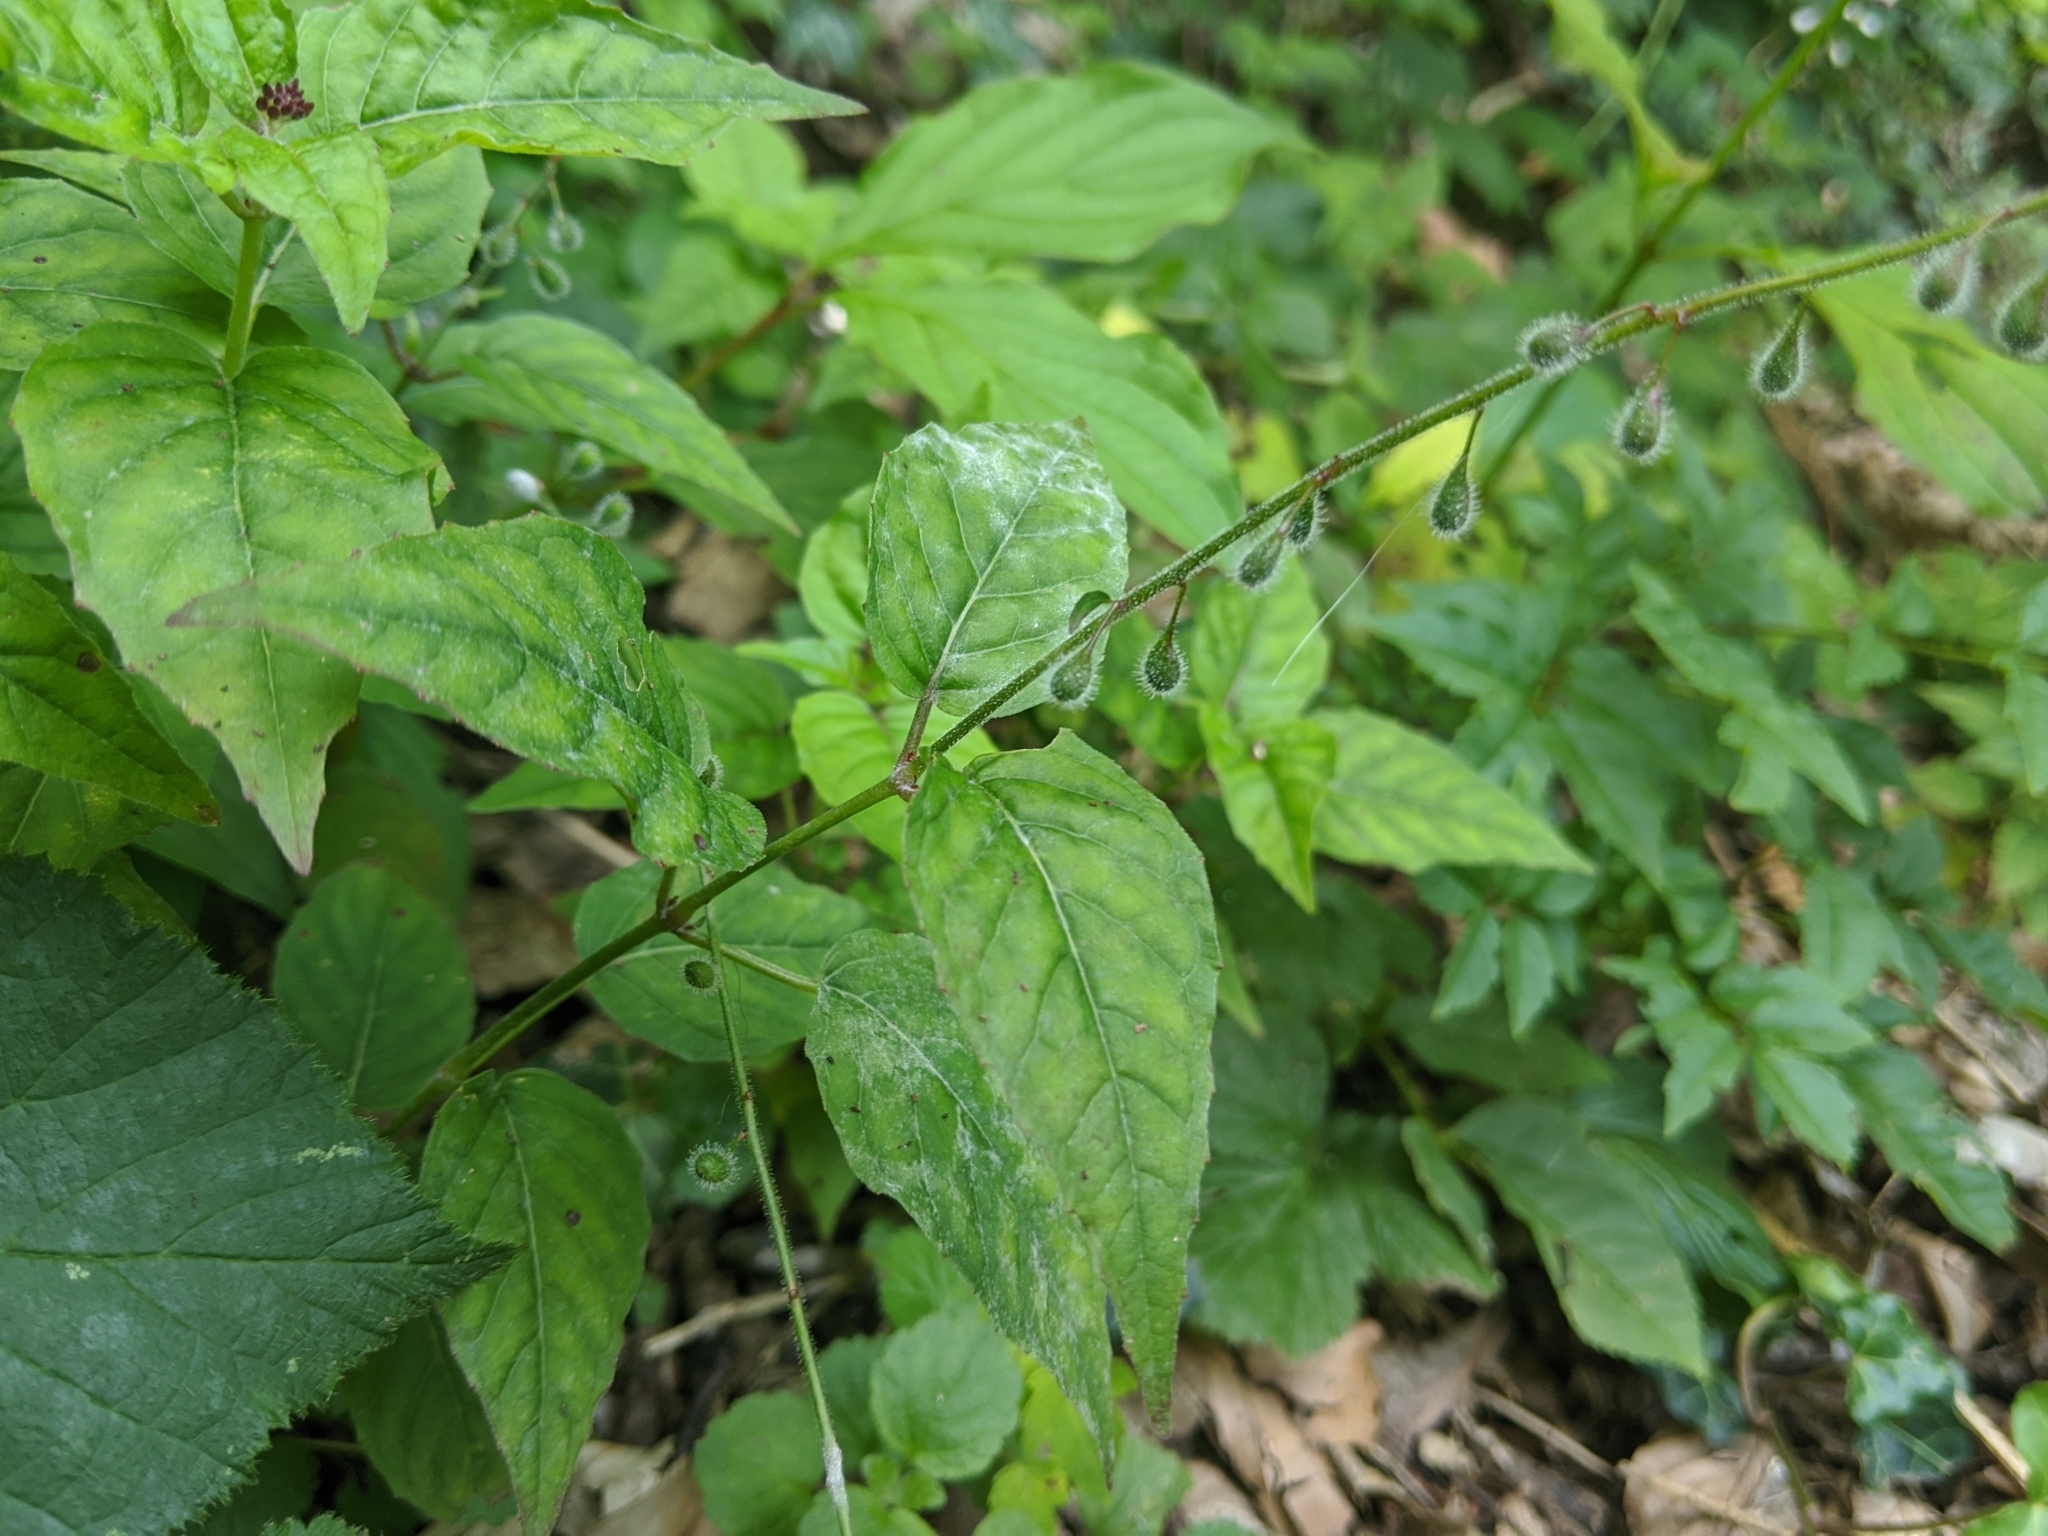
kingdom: Plantae
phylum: Tracheophyta
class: Magnoliopsida
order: Myrtales
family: Onagraceae
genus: Circaea
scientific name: Circaea lutetiana
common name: Enchanter's-nightshade
